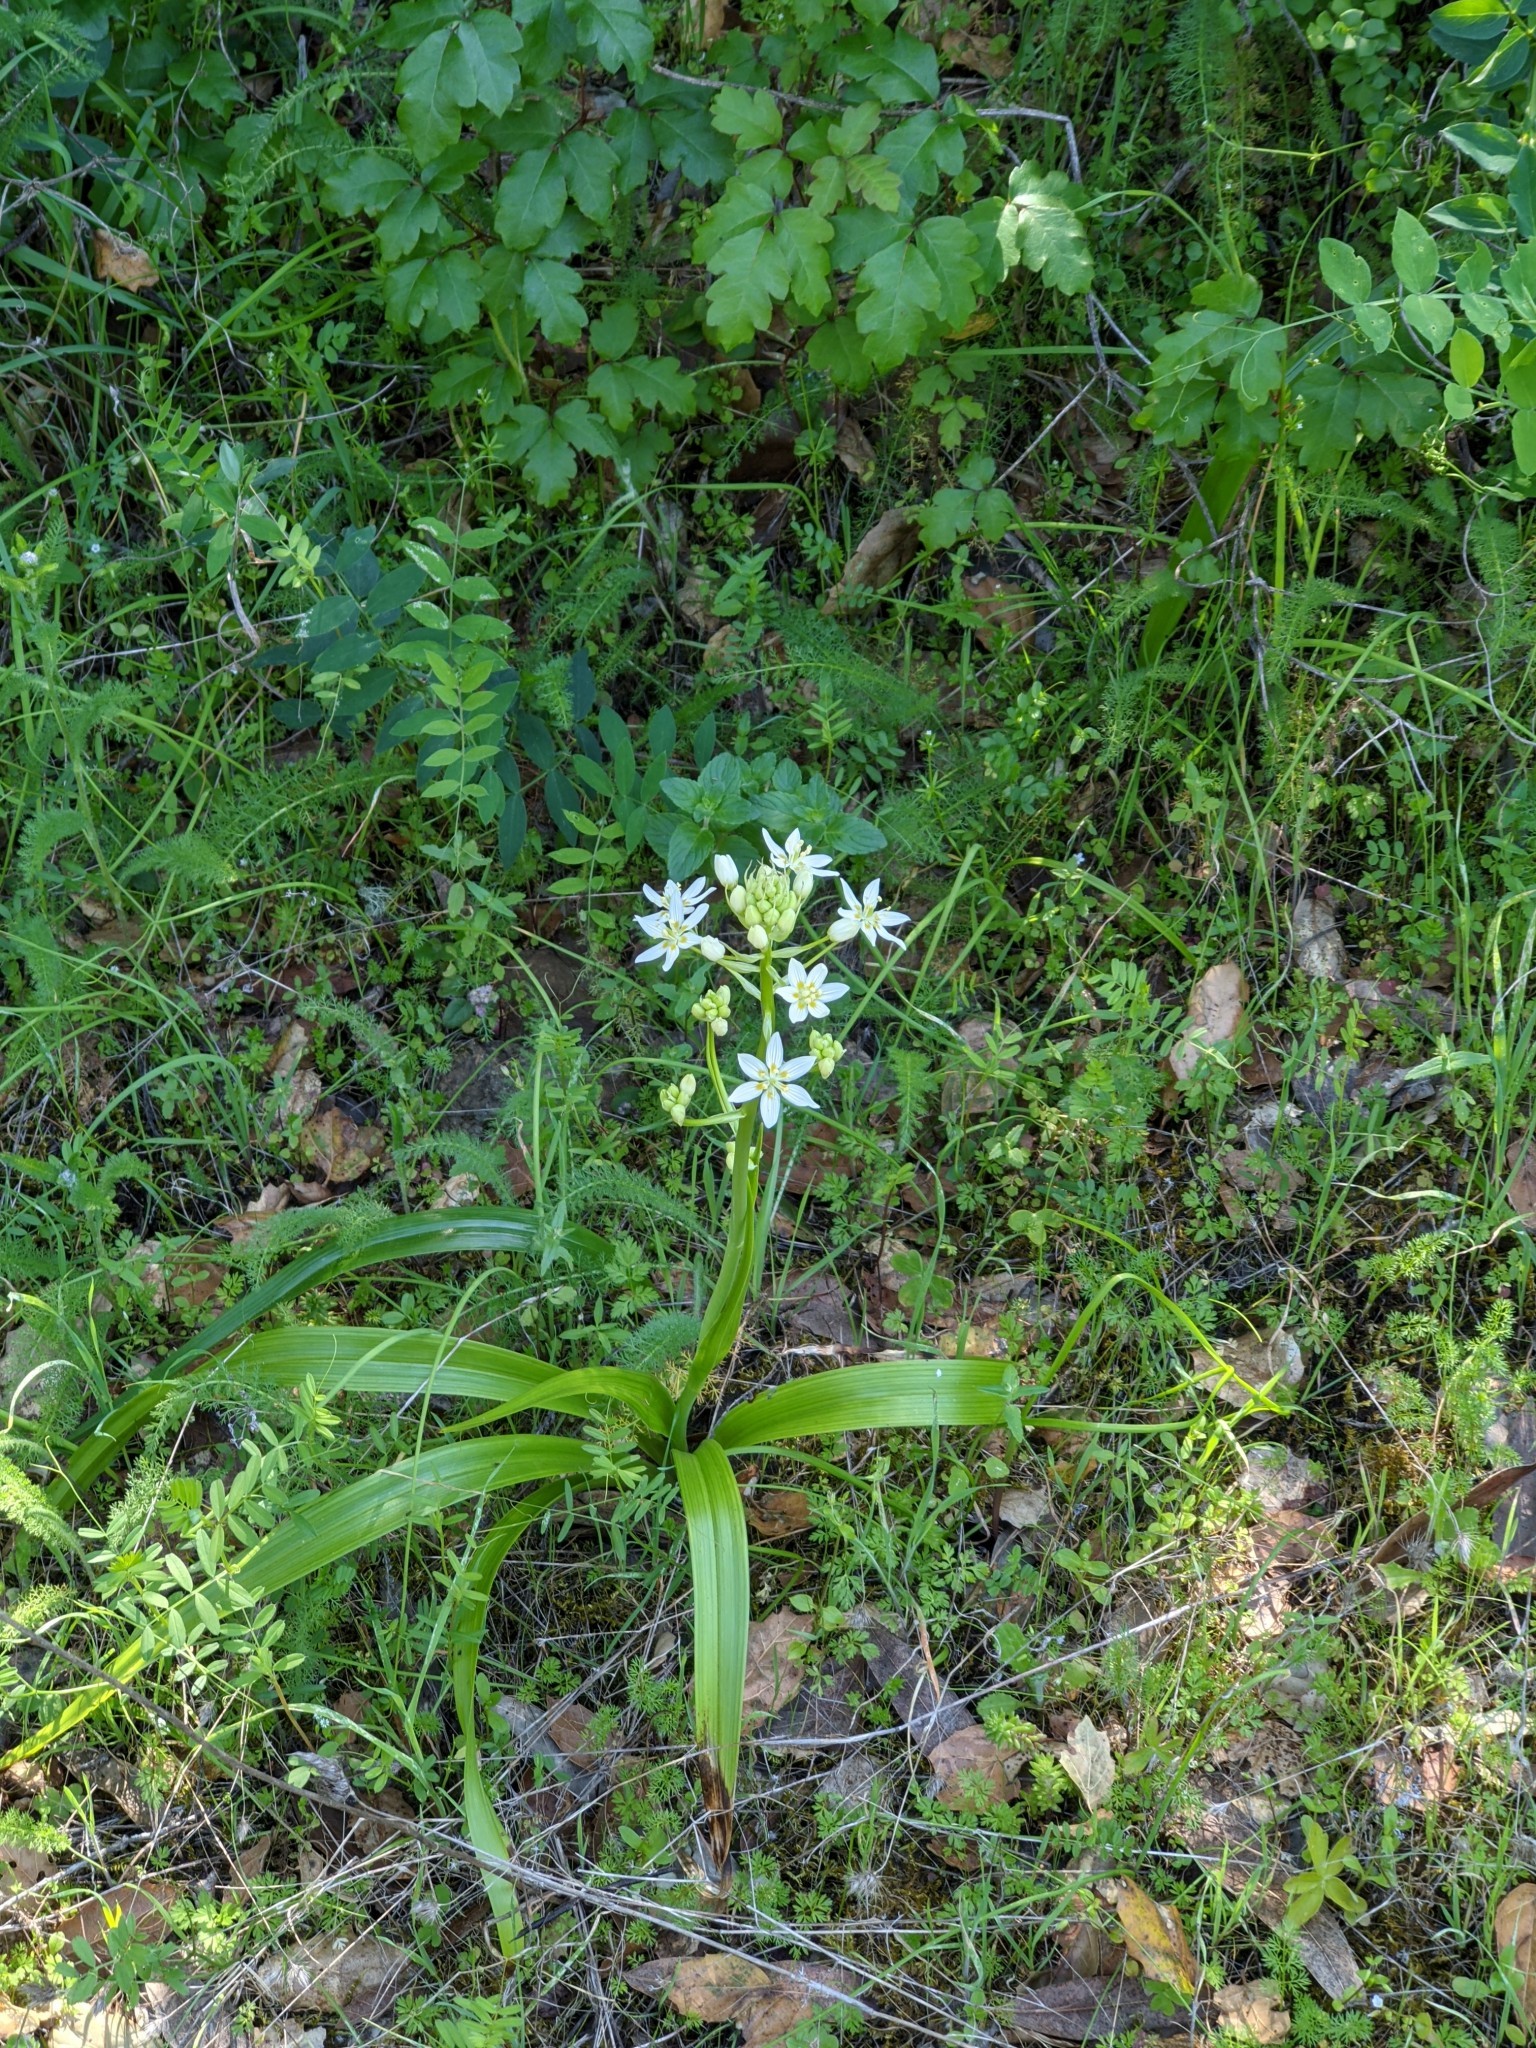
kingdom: Plantae
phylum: Tracheophyta
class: Liliopsida
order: Liliales
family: Melanthiaceae
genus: Toxicoscordion
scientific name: Toxicoscordion fremontii
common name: Fremont's death camas
